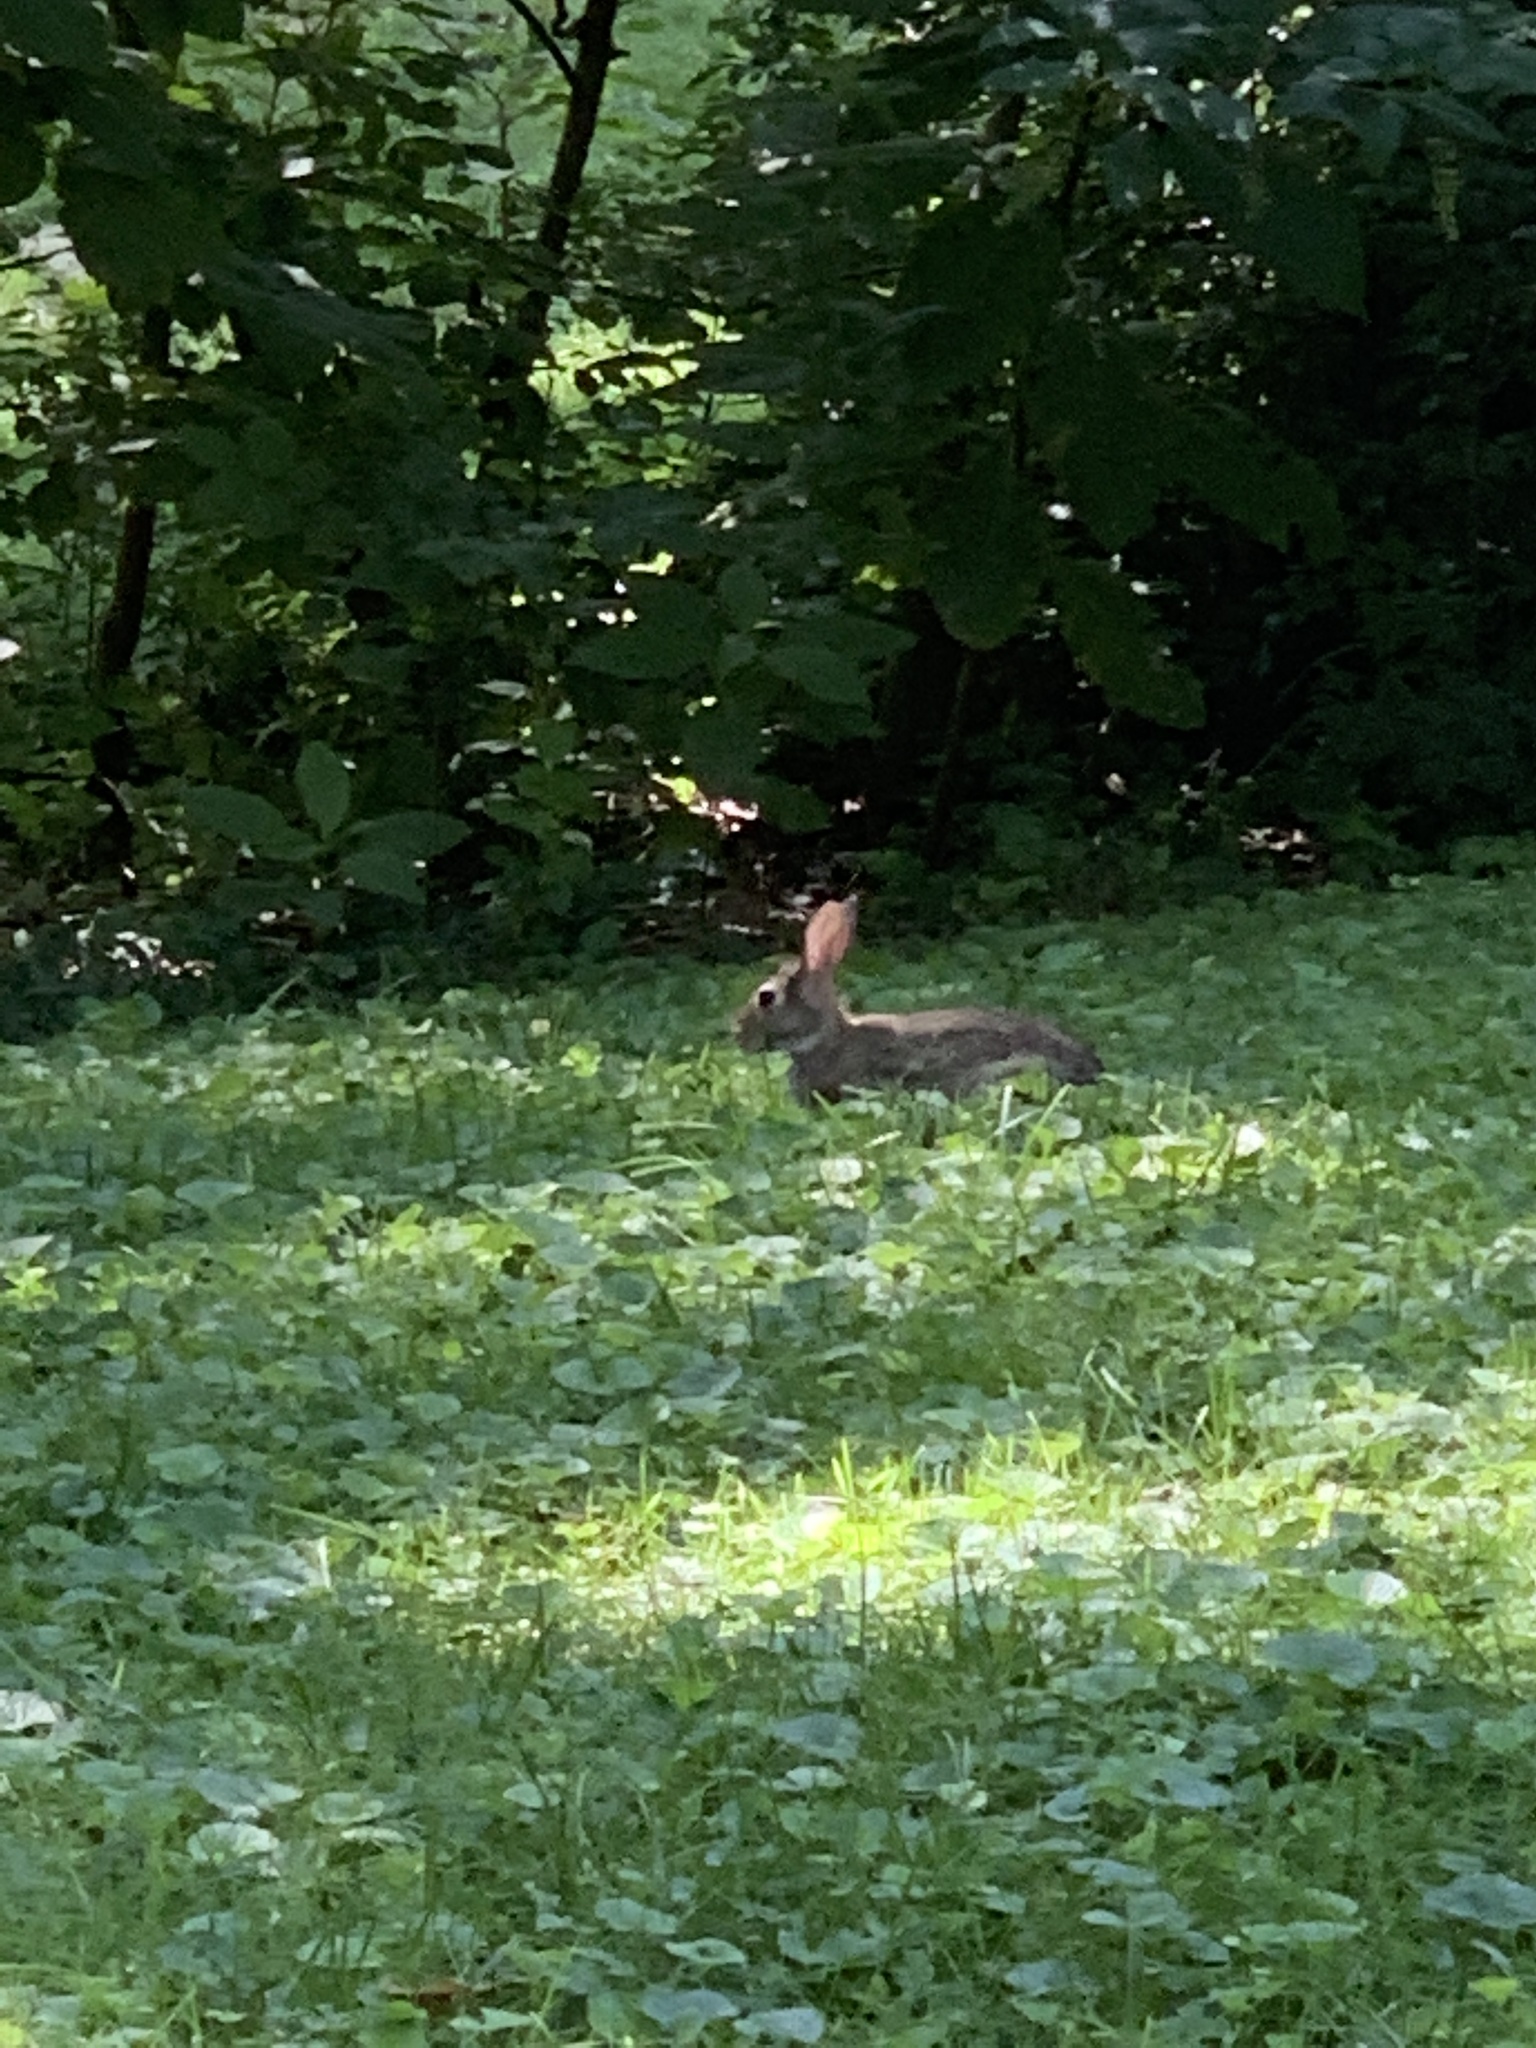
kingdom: Animalia
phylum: Chordata
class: Mammalia
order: Lagomorpha
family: Leporidae
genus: Sylvilagus
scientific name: Sylvilagus floridanus
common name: Eastern cottontail
